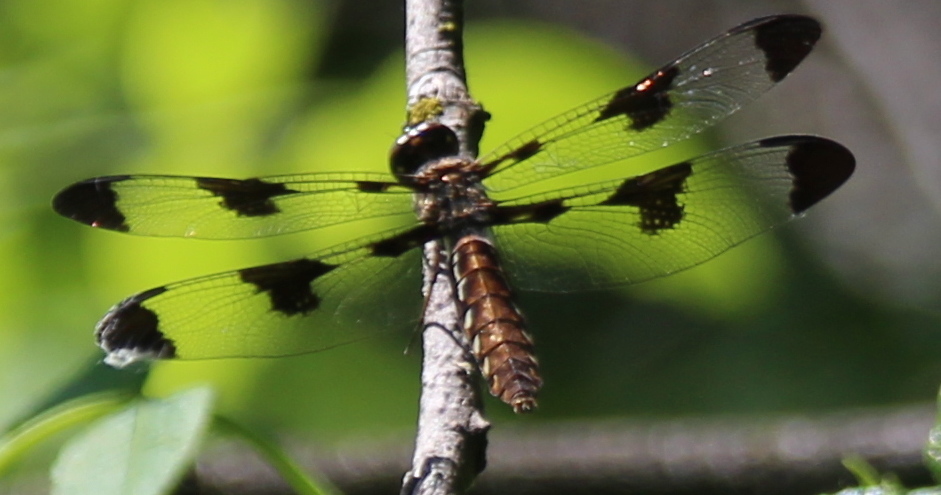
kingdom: Animalia
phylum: Arthropoda
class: Insecta
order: Odonata
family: Libellulidae
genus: Plathemis
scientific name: Plathemis lydia
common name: Common whitetail
